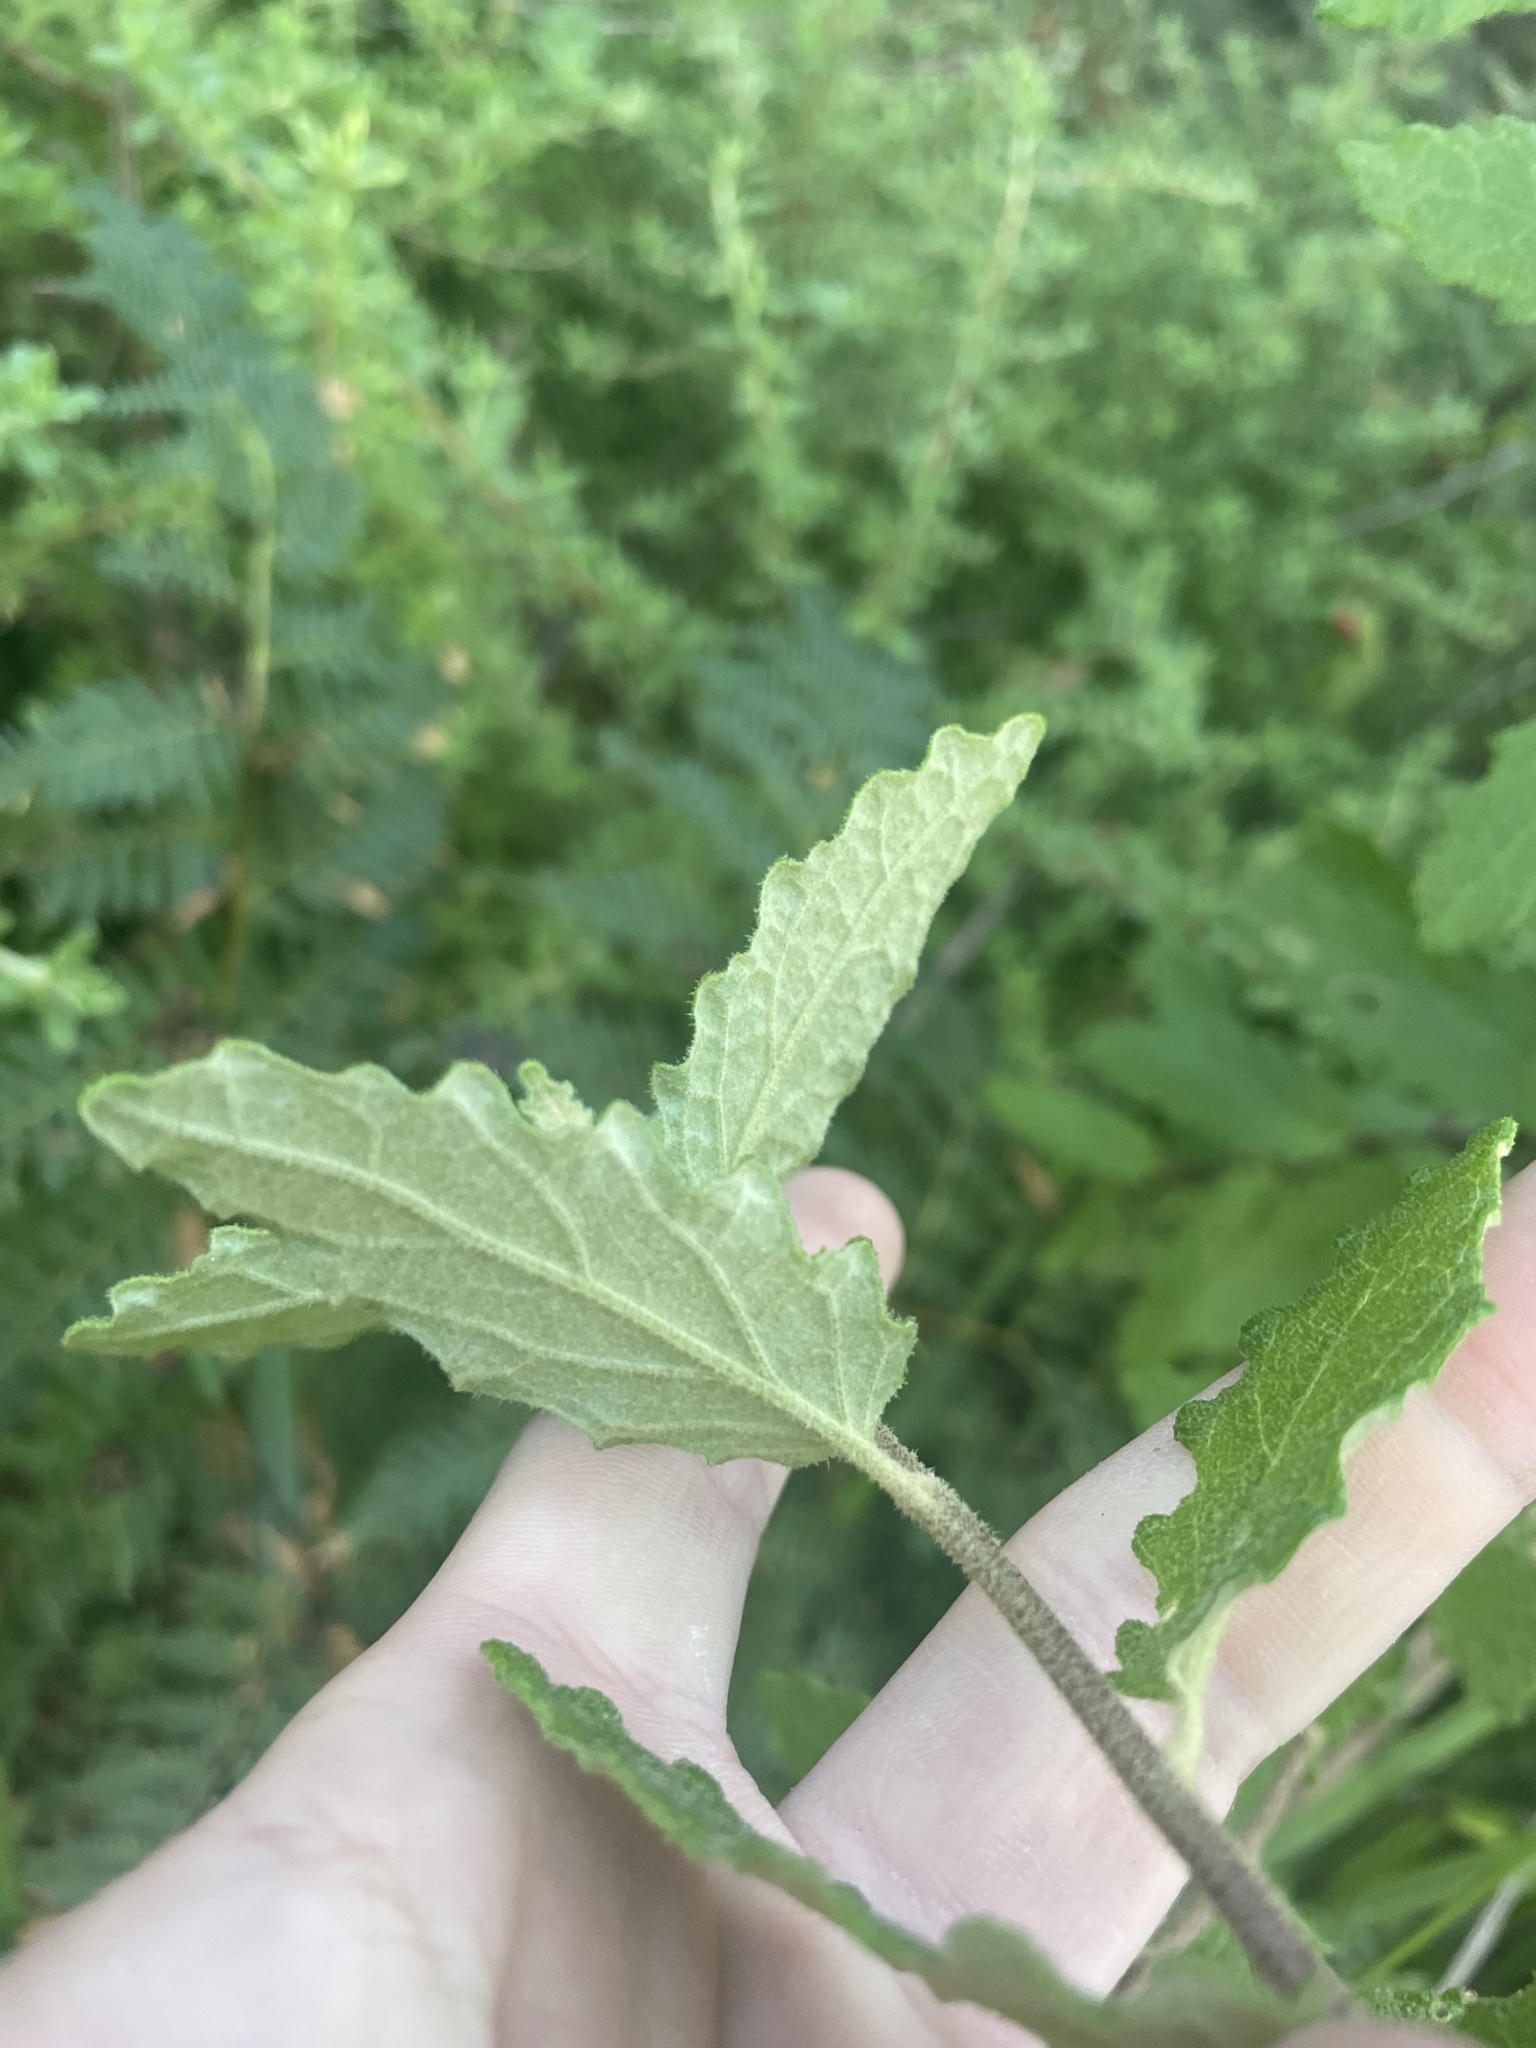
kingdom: Plantae
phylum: Tracheophyta
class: Magnoliopsida
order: Asterales
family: Asteraceae
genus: Olearia
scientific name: Olearia rugosa
